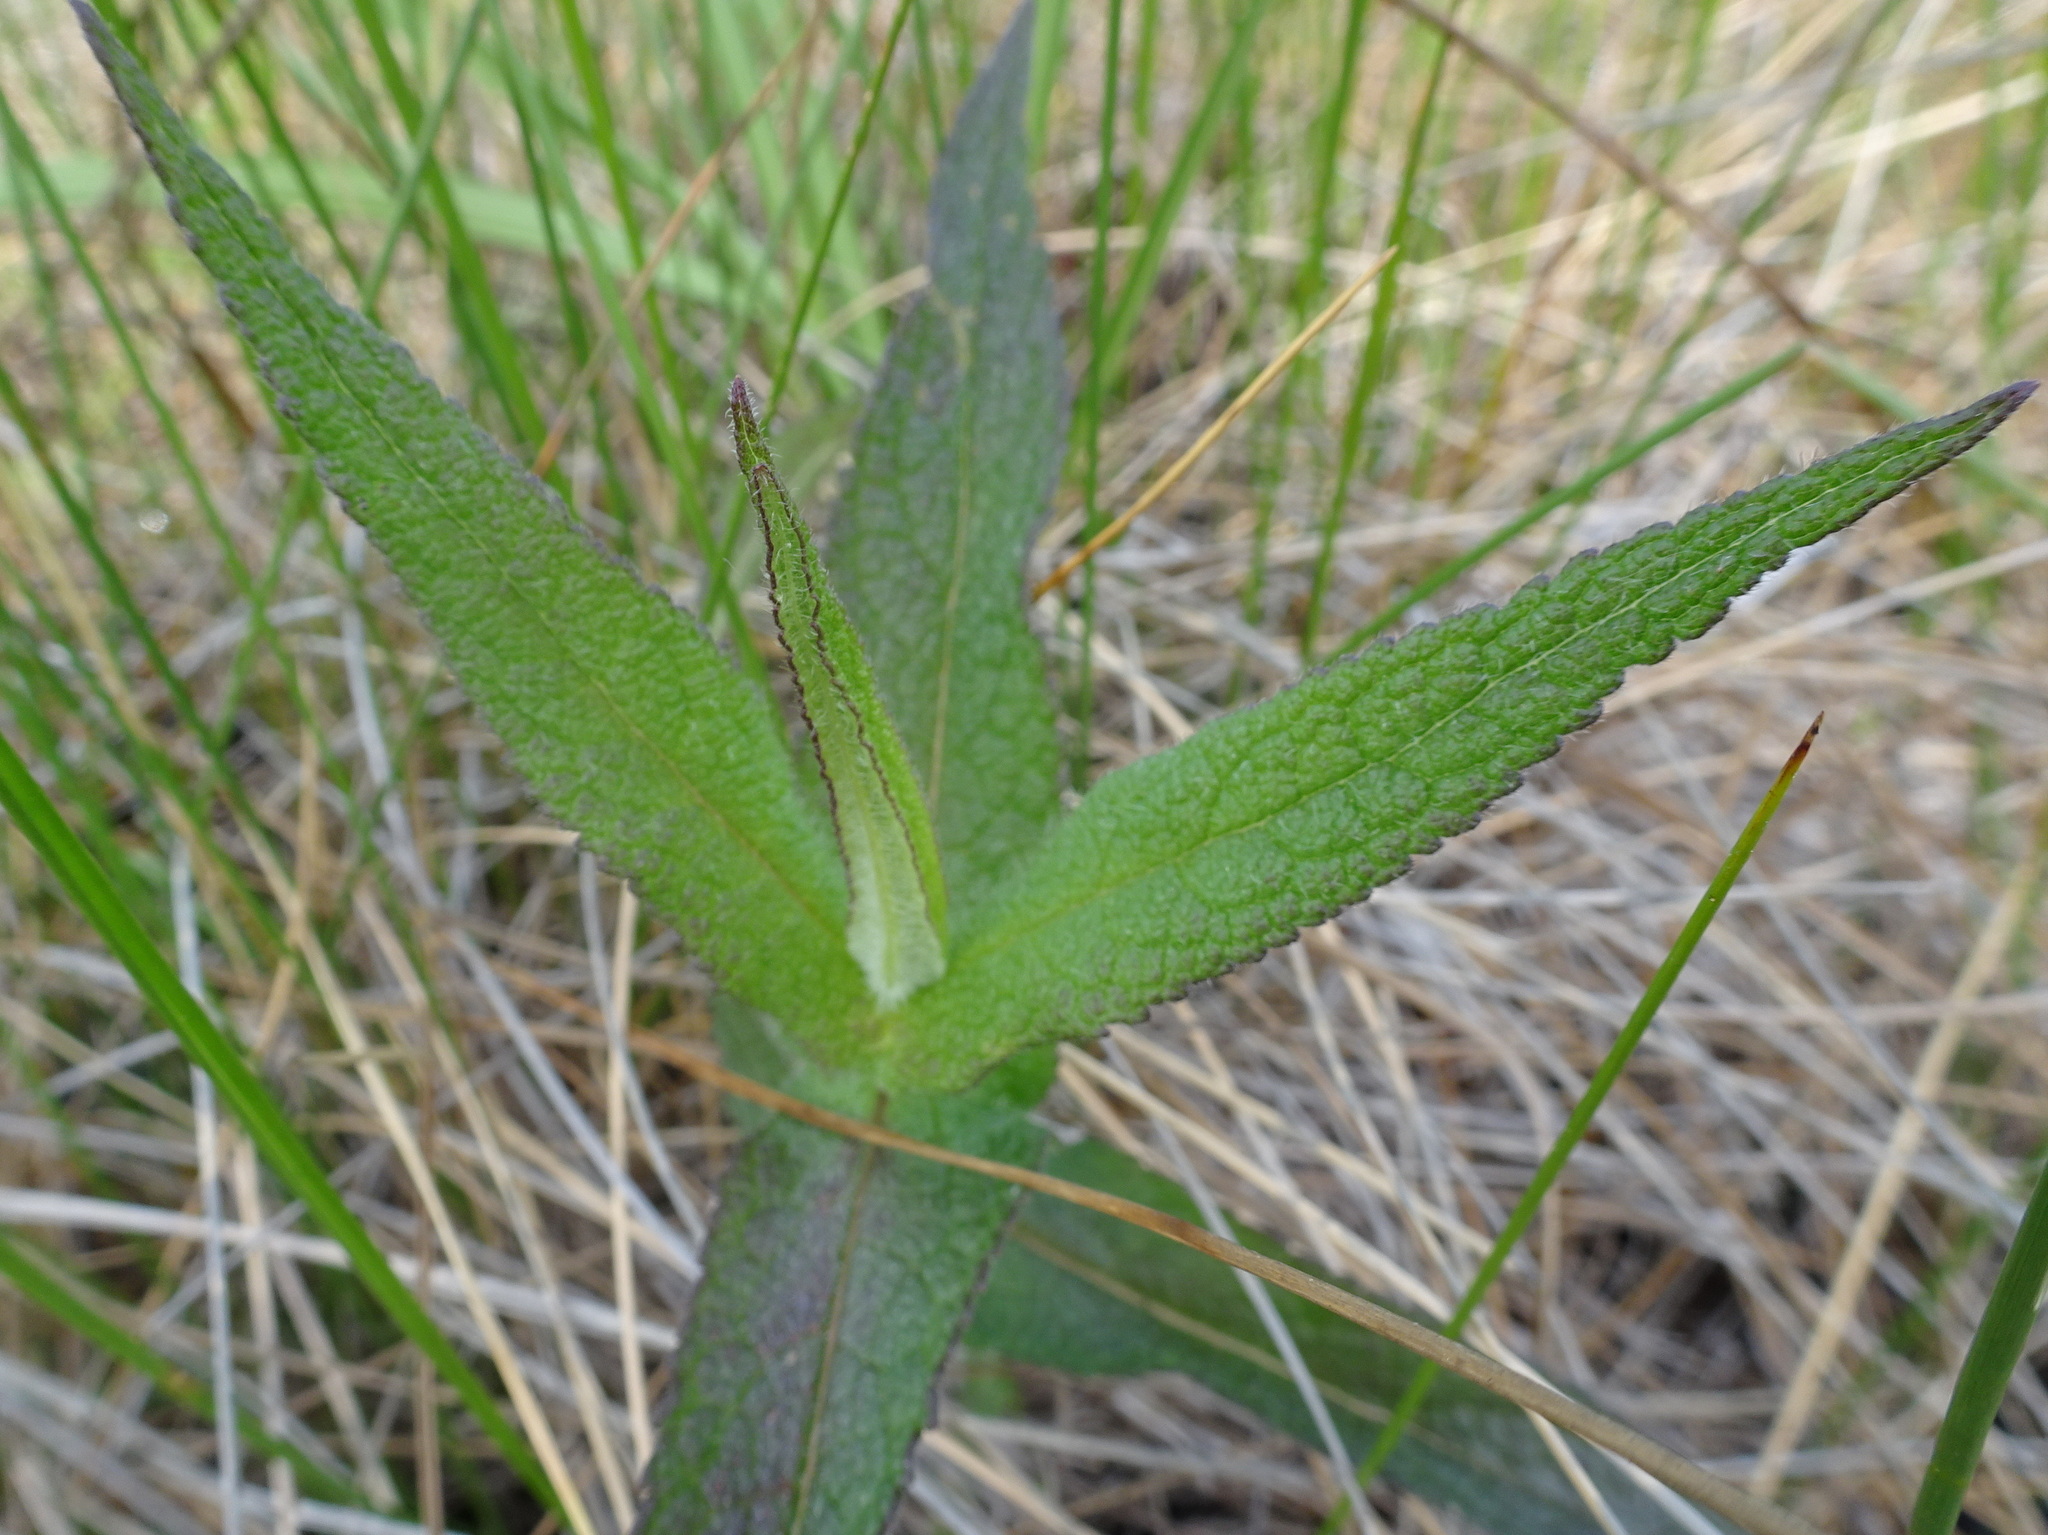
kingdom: Plantae
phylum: Tracheophyta
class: Magnoliopsida
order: Asterales
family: Asteraceae
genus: Eupatorium
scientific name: Eupatorium perfoliatum
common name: Boneset
